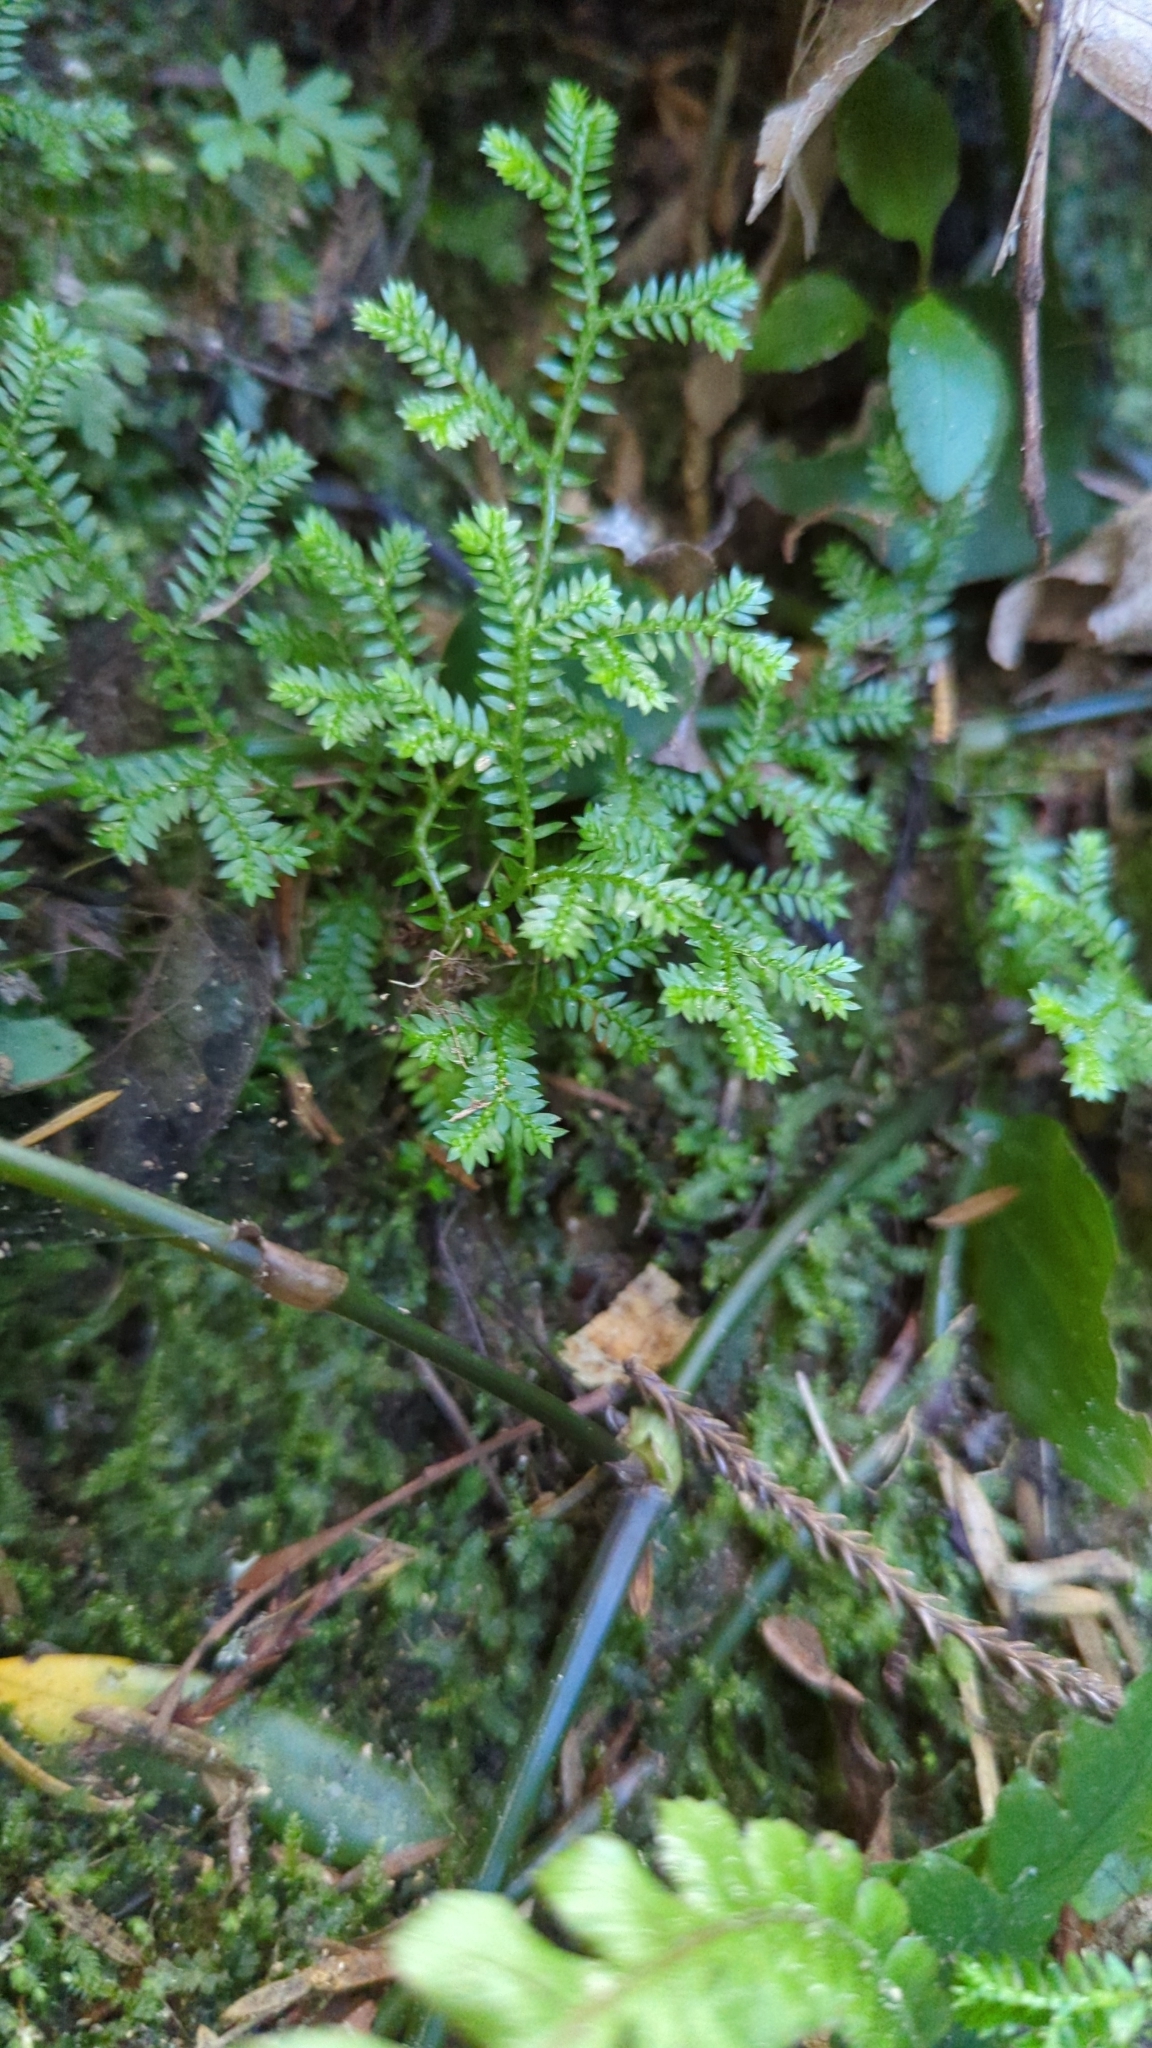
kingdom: Plantae
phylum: Tracheophyta
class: Lycopodiopsida
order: Selaginellales
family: Selaginellaceae
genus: Selaginella
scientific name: Selaginella kraussiana
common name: Krauss' spikemoss
